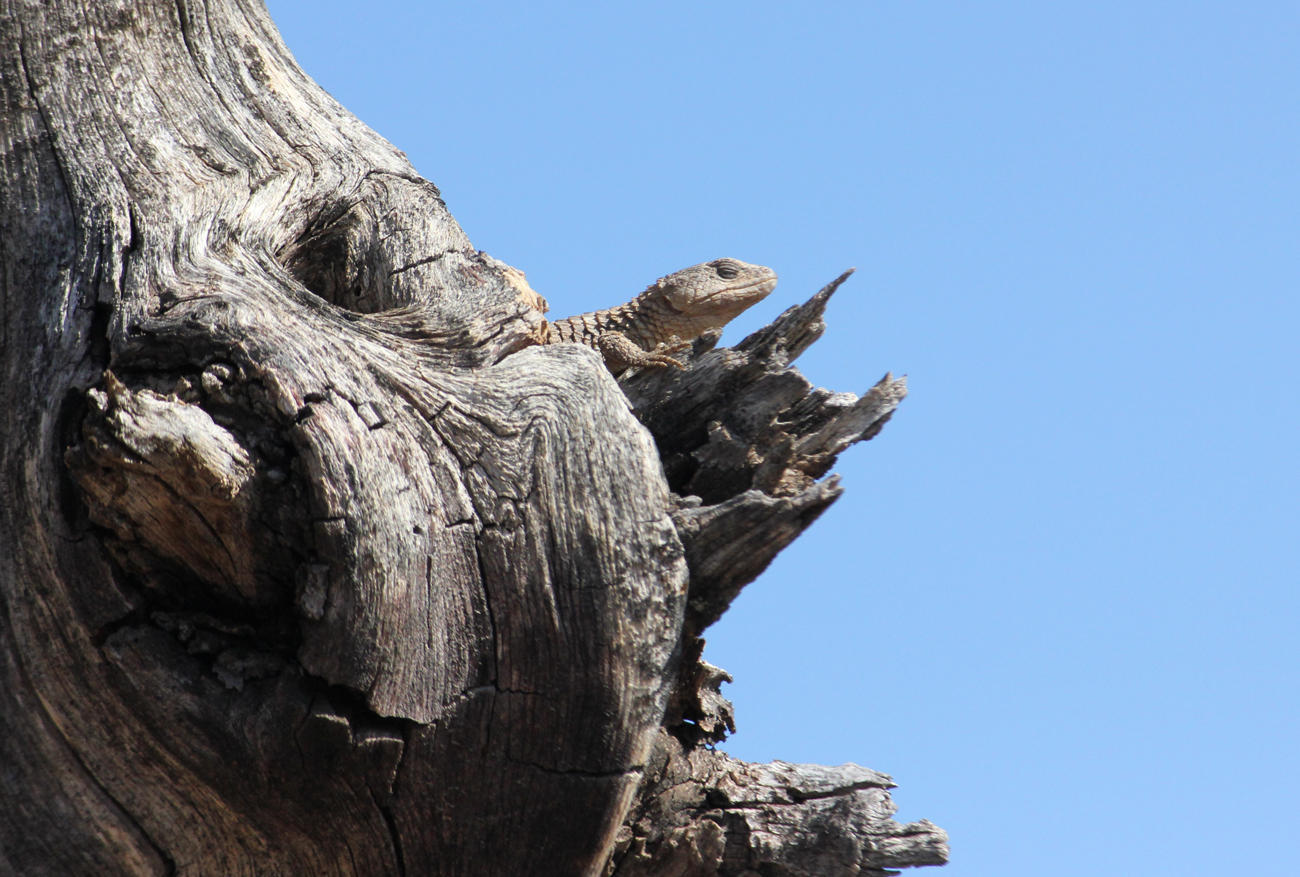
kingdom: Animalia
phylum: Chordata
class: Squamata
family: Cordylidae
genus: Cordylus
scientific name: Cordylus jonesii
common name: Jones' girdled lizard
